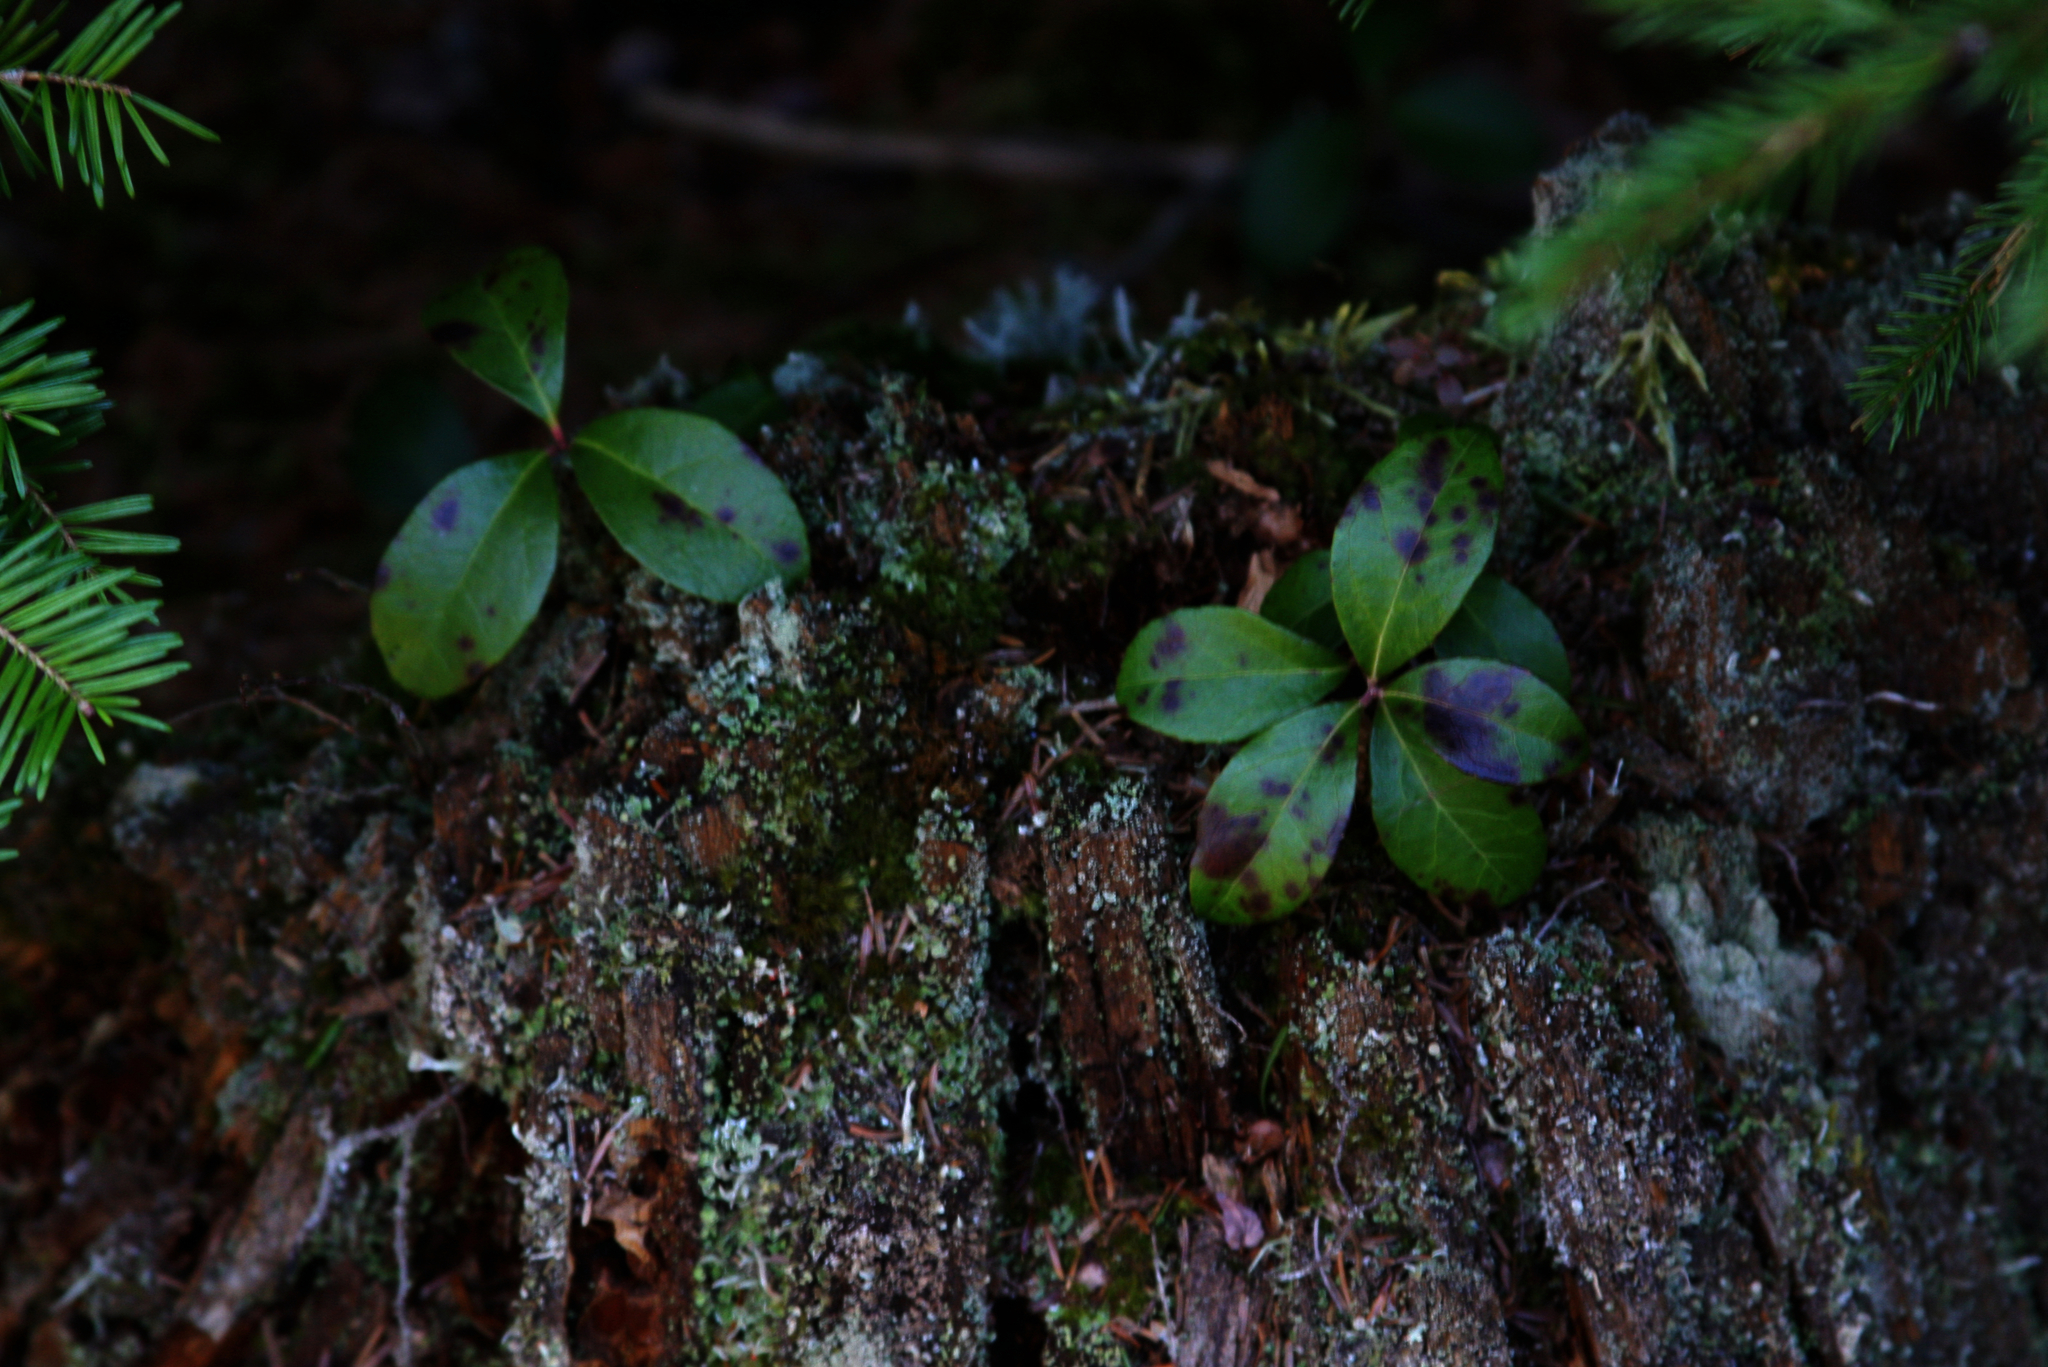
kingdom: Plantae
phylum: Tracheophyta
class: Magnoliopsida
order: Ericales
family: Ericaceae
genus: Gaultheria
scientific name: Gaultheria procumbens
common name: Checkerberry
